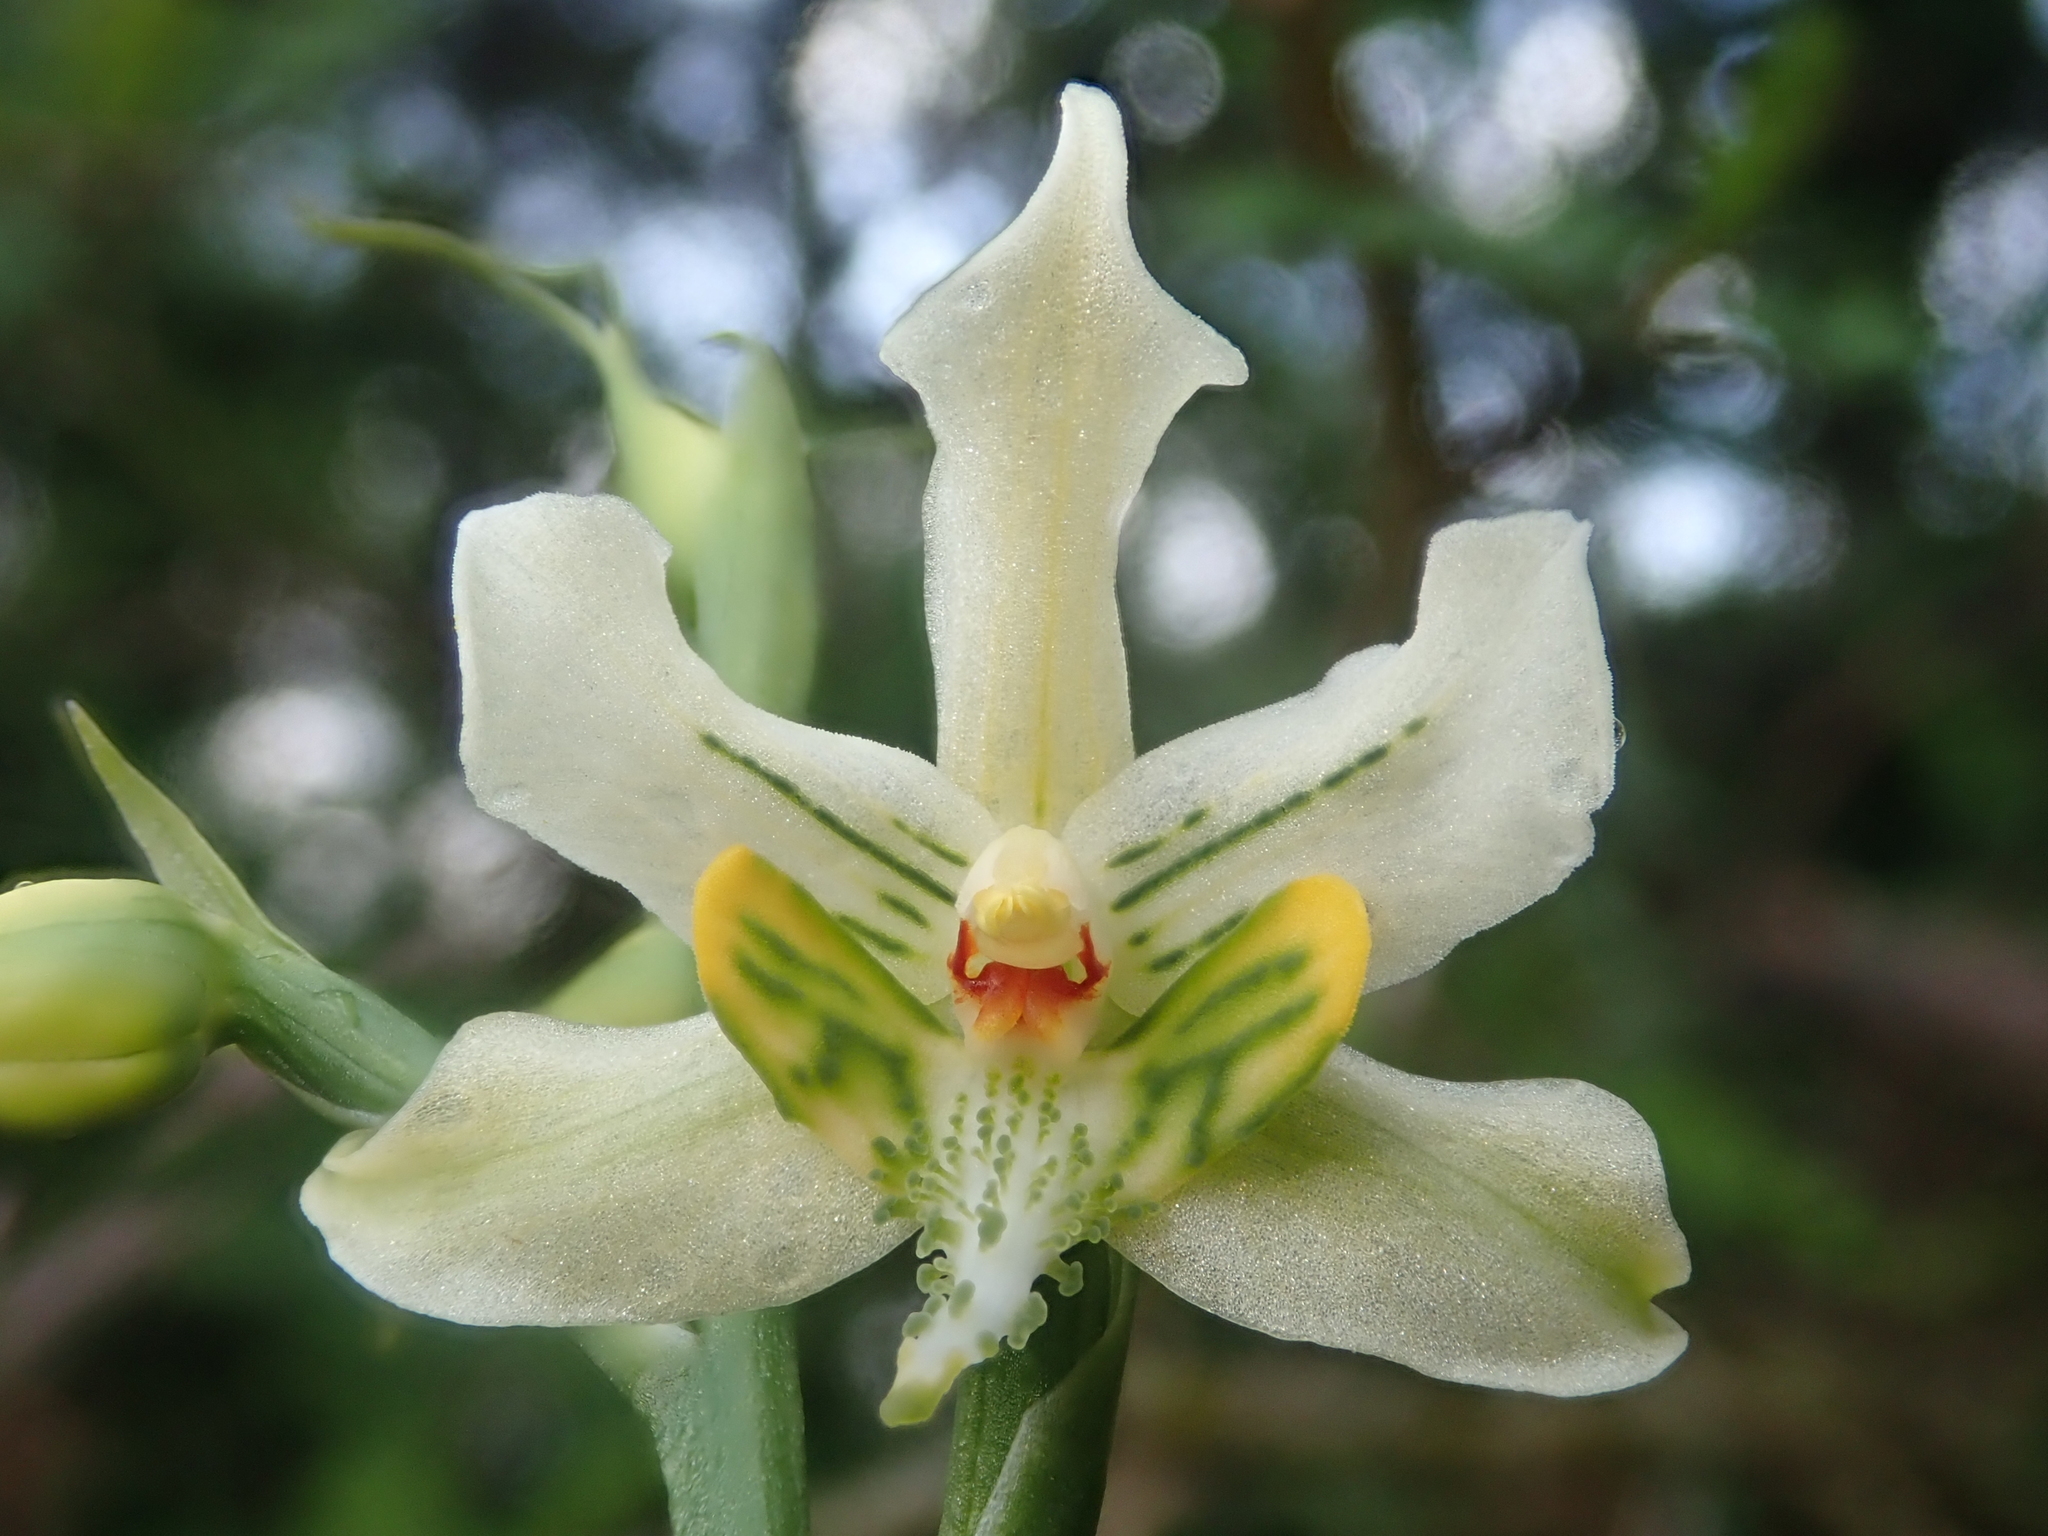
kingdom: Plantae
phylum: Tracheophyta
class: Liliopsida
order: Asparagales
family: Orchidaceae
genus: Gavilea
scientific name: Gavilea araucana
